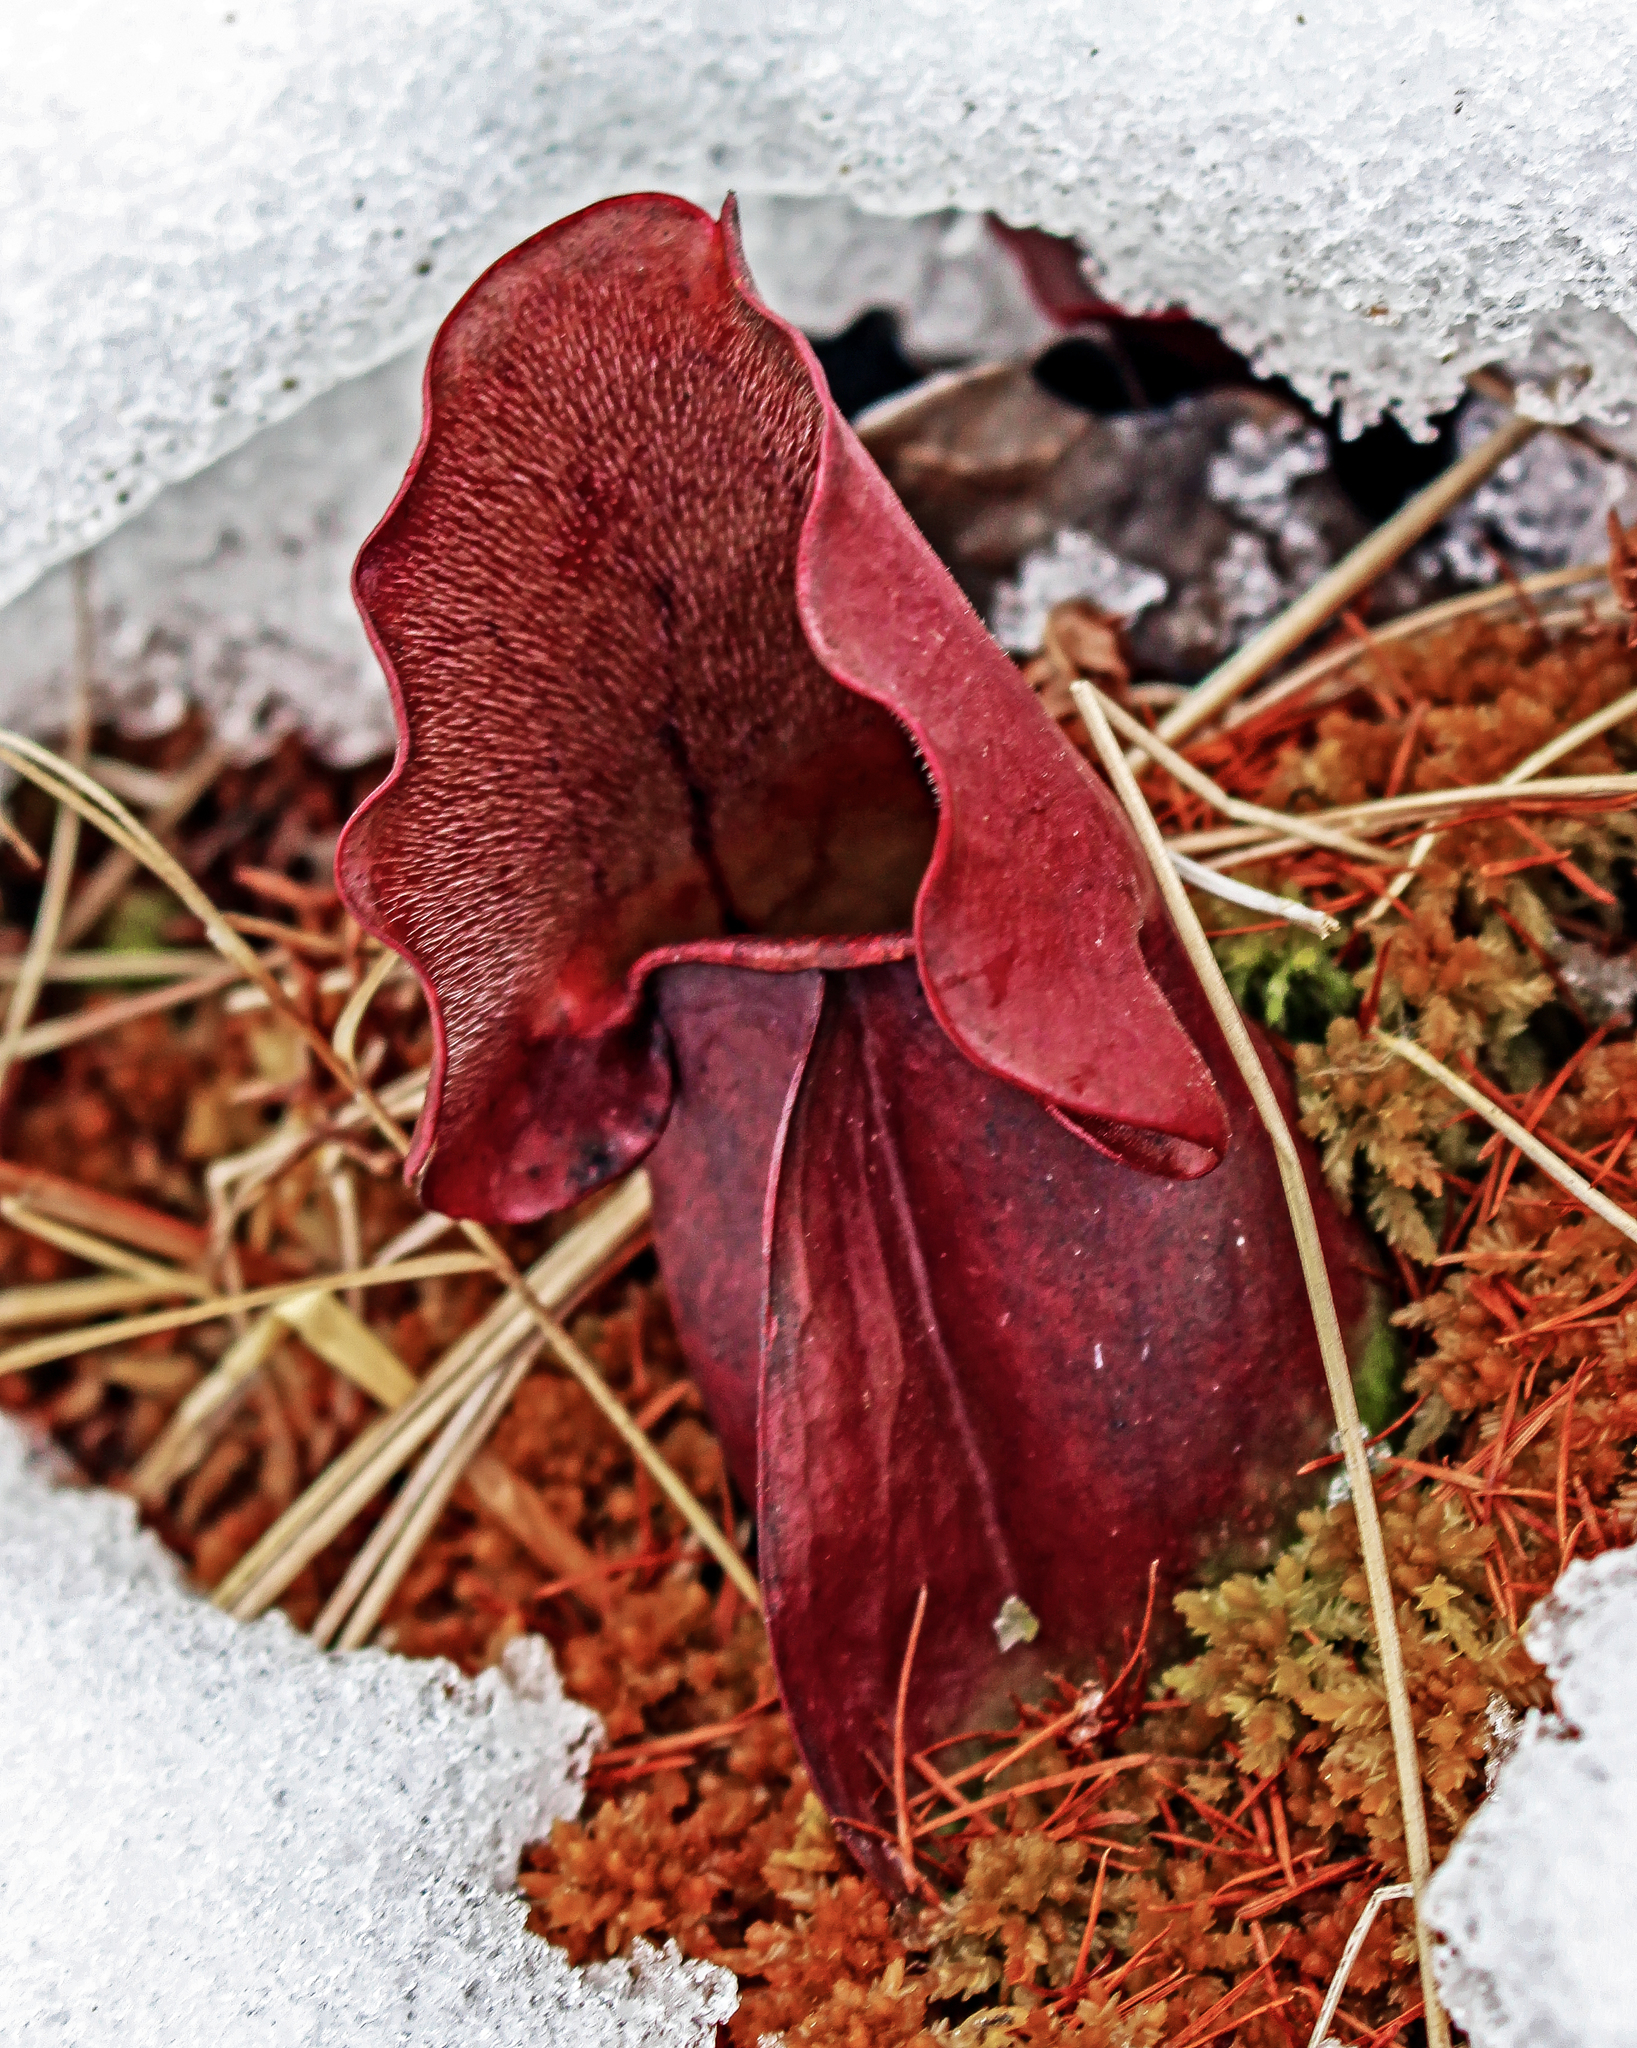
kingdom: Plantae
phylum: Tracheophyta
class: Magnoliopsida
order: Ericales
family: Sarraceniaceae
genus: Sarracenia
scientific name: Sarracenia purpurea
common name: Pitcherplant
